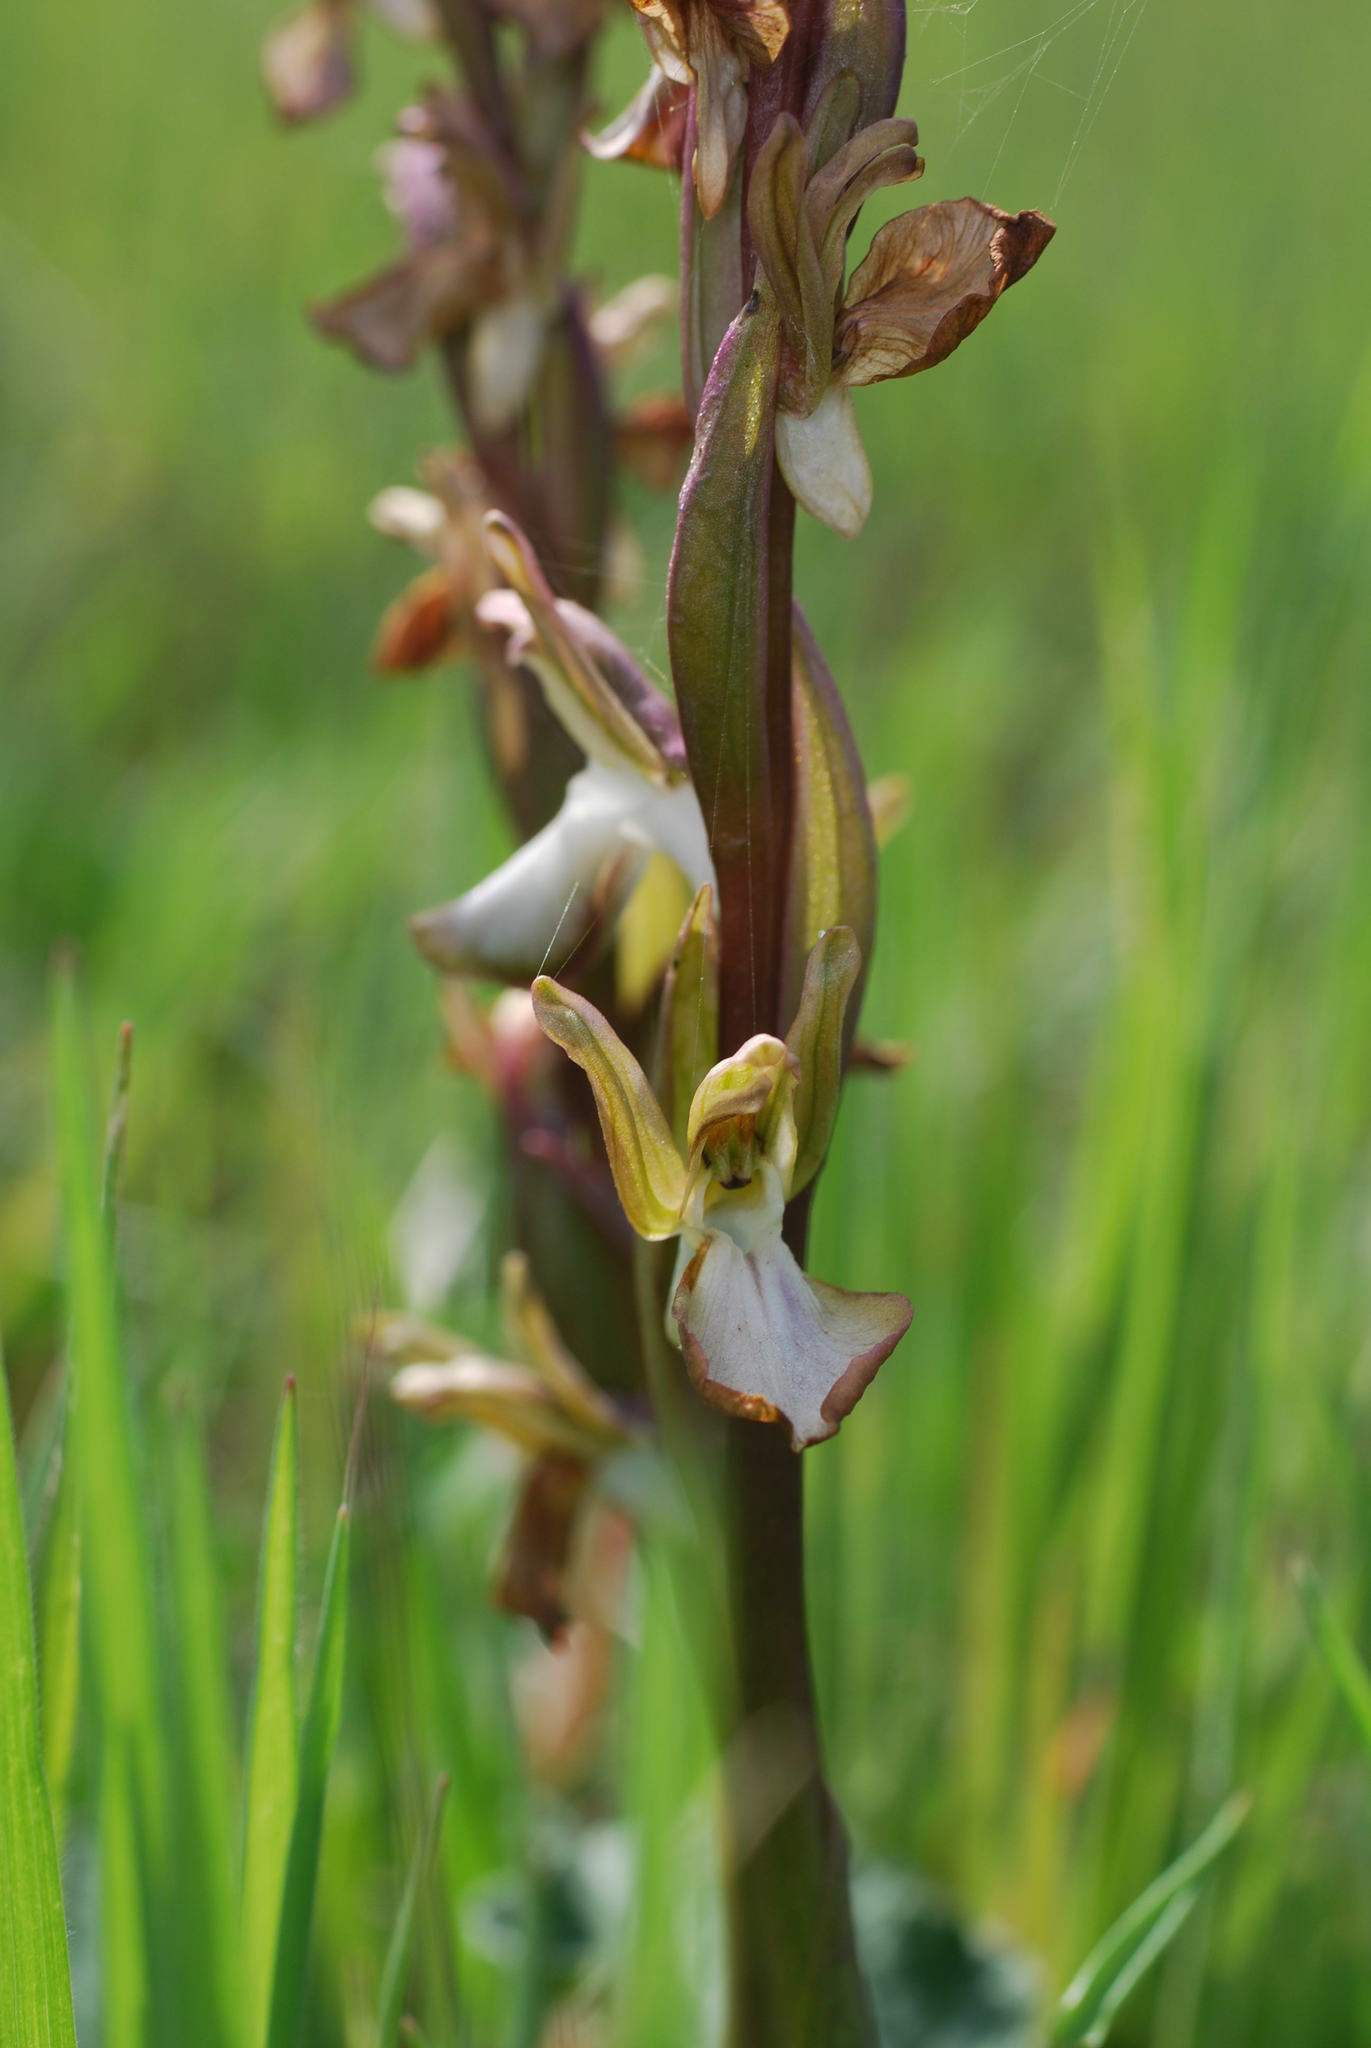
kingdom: Plantae
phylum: Tracheophyta
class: Liliopsida
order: Asparagales
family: Orchidaceae
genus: Anacamptis
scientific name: Anacamptis collina
